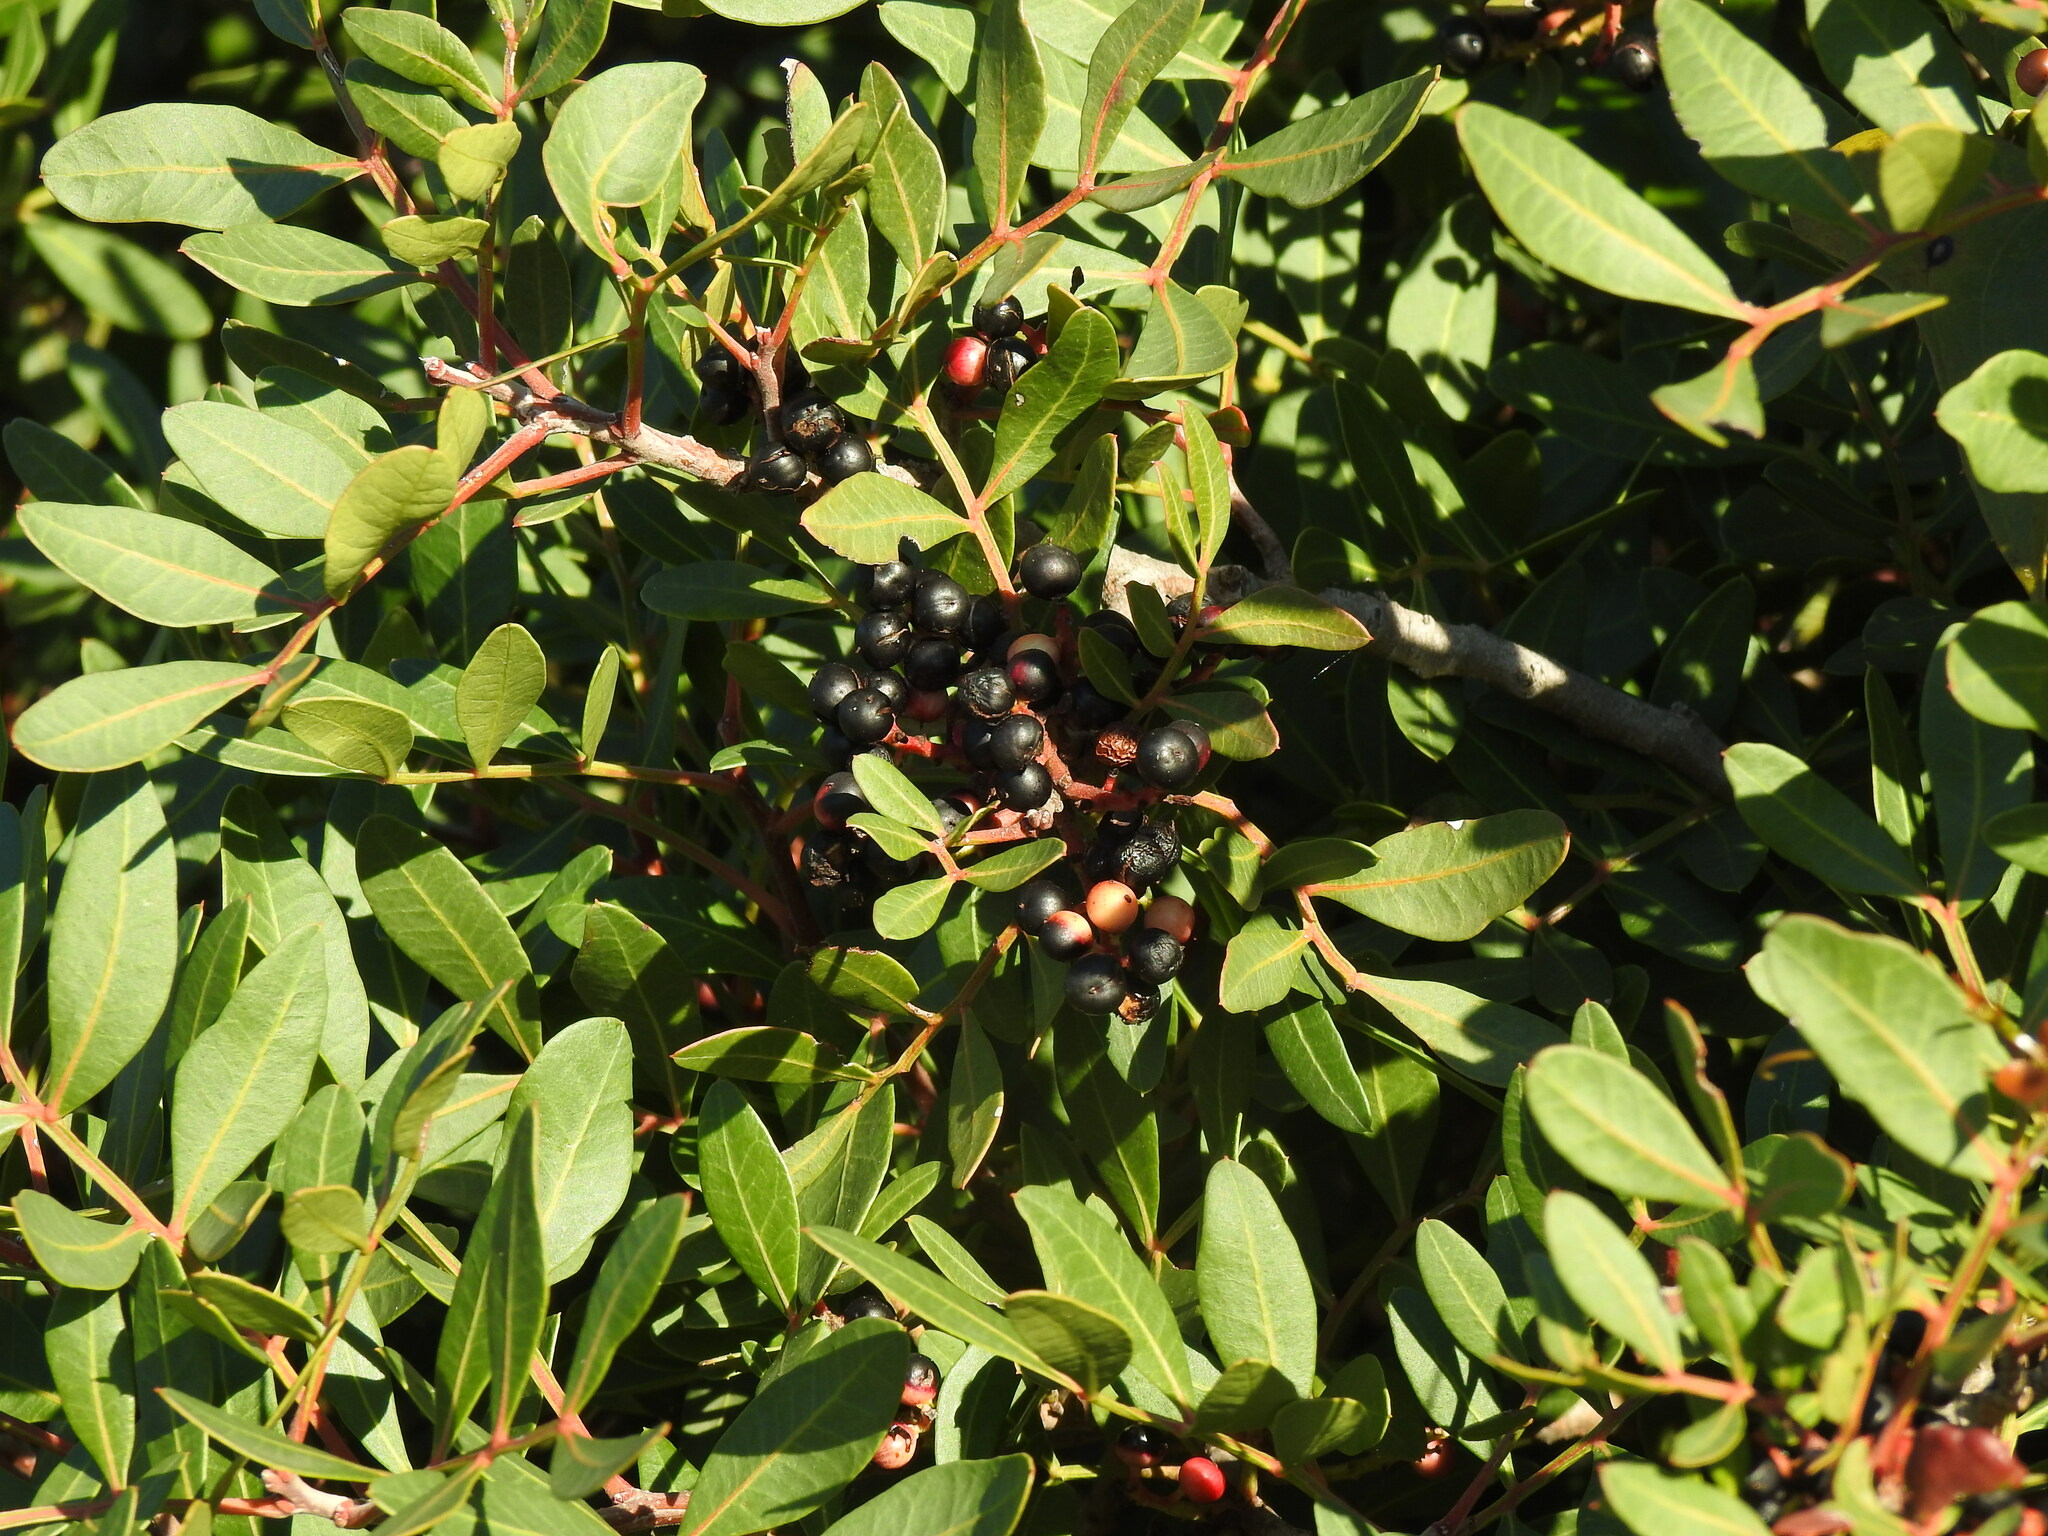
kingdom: Plantae
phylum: Tracheophyta
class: Magnoliopsida
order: Sapindales
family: Anacardiaceae
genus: Pistacia
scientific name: Pistacia lentiscus
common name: Lentisk
